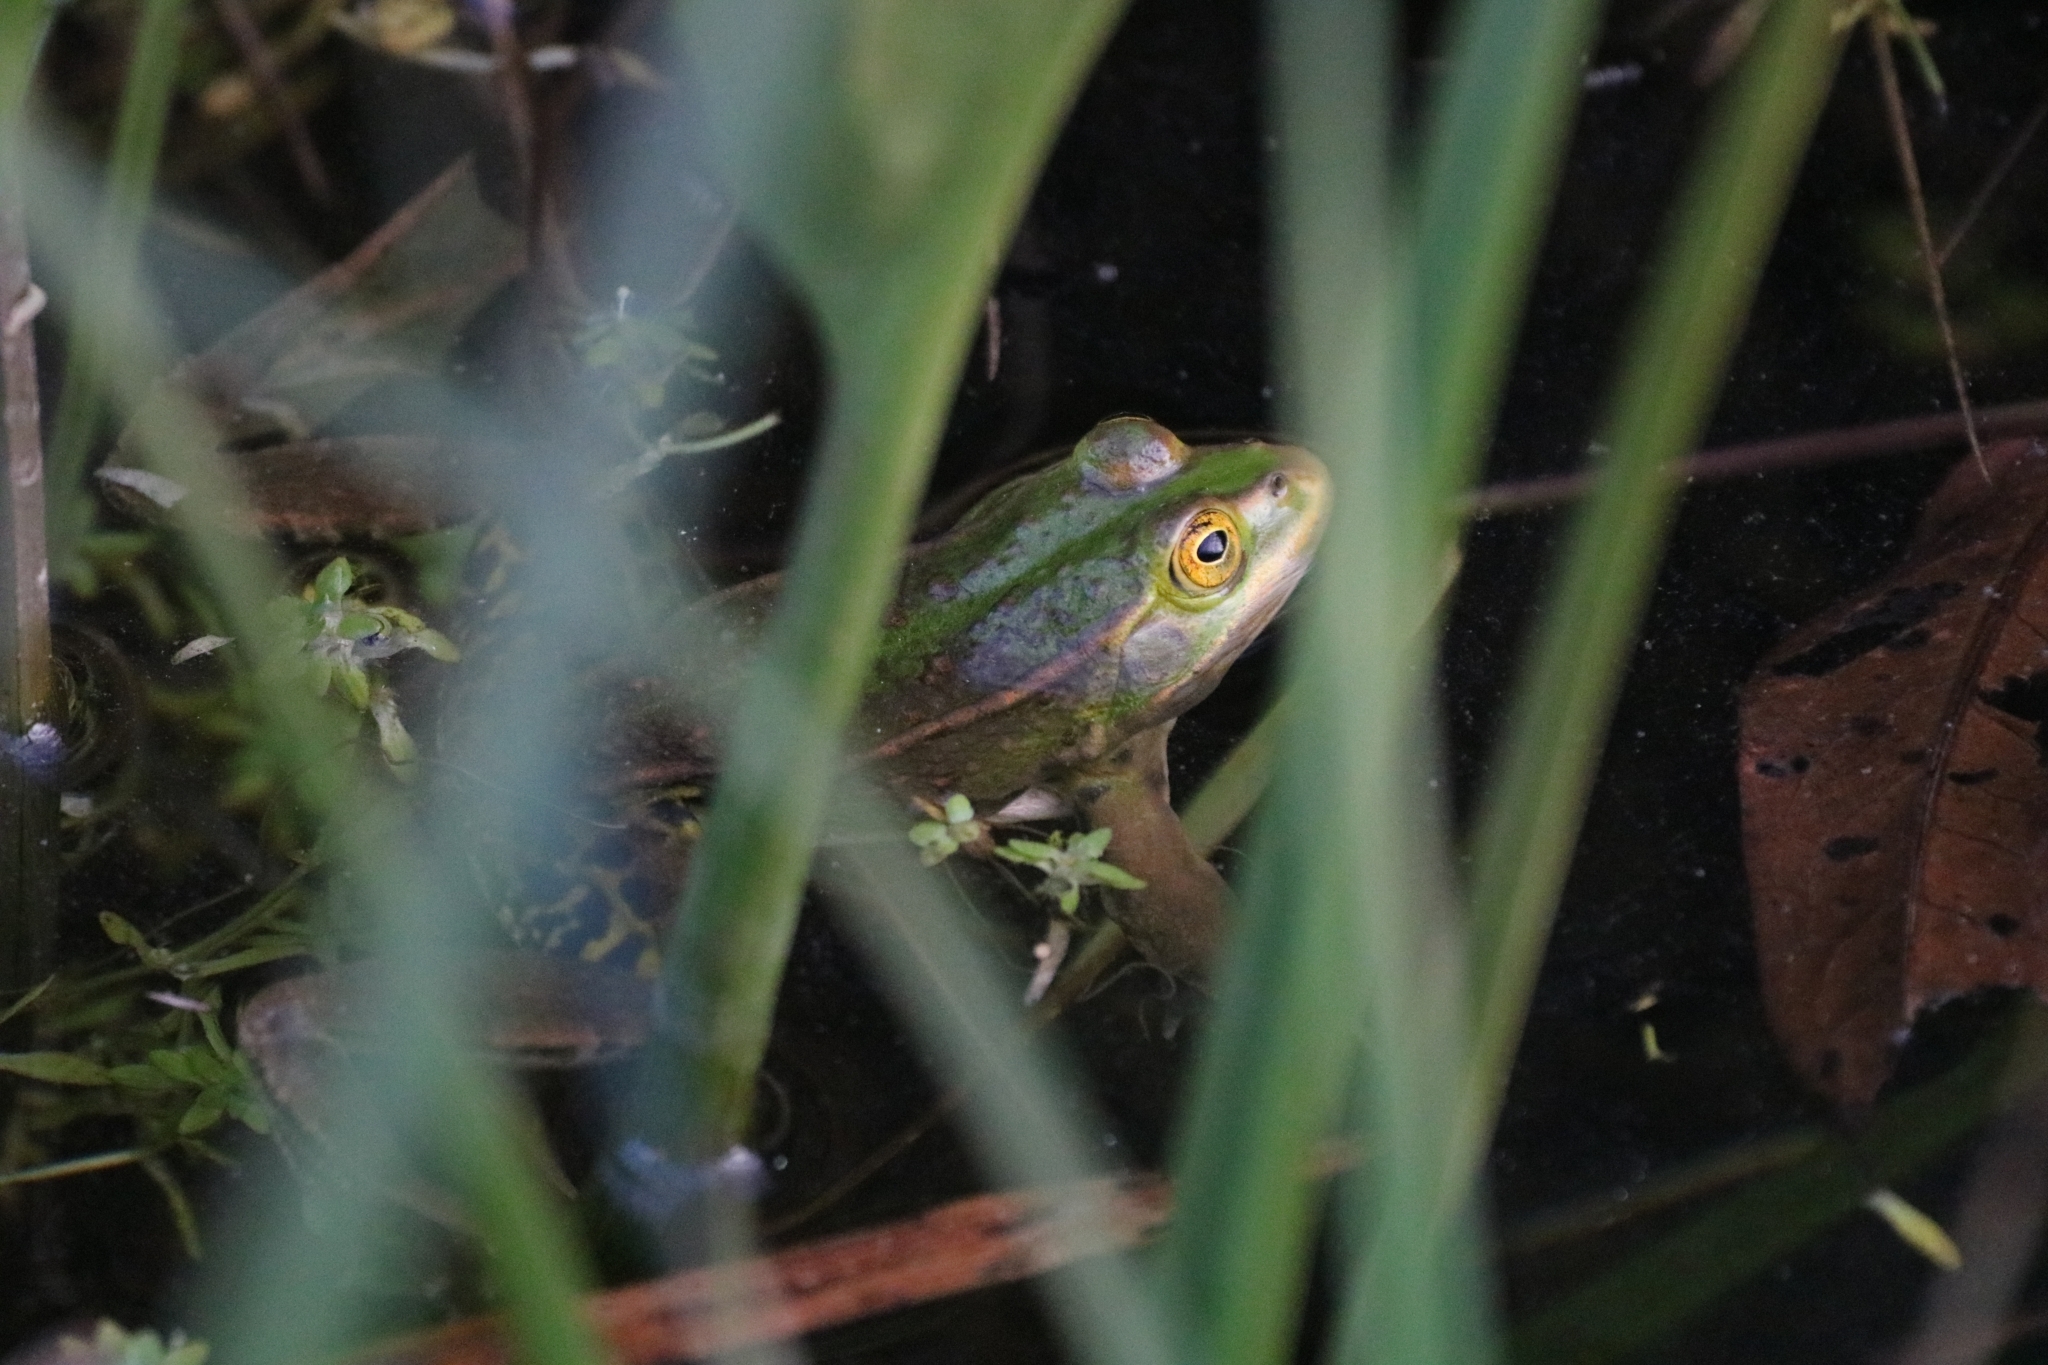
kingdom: Animalia
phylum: Chordata
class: Amphibia
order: Anura
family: Ranidae
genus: Pelophylax
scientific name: Pelophylax
